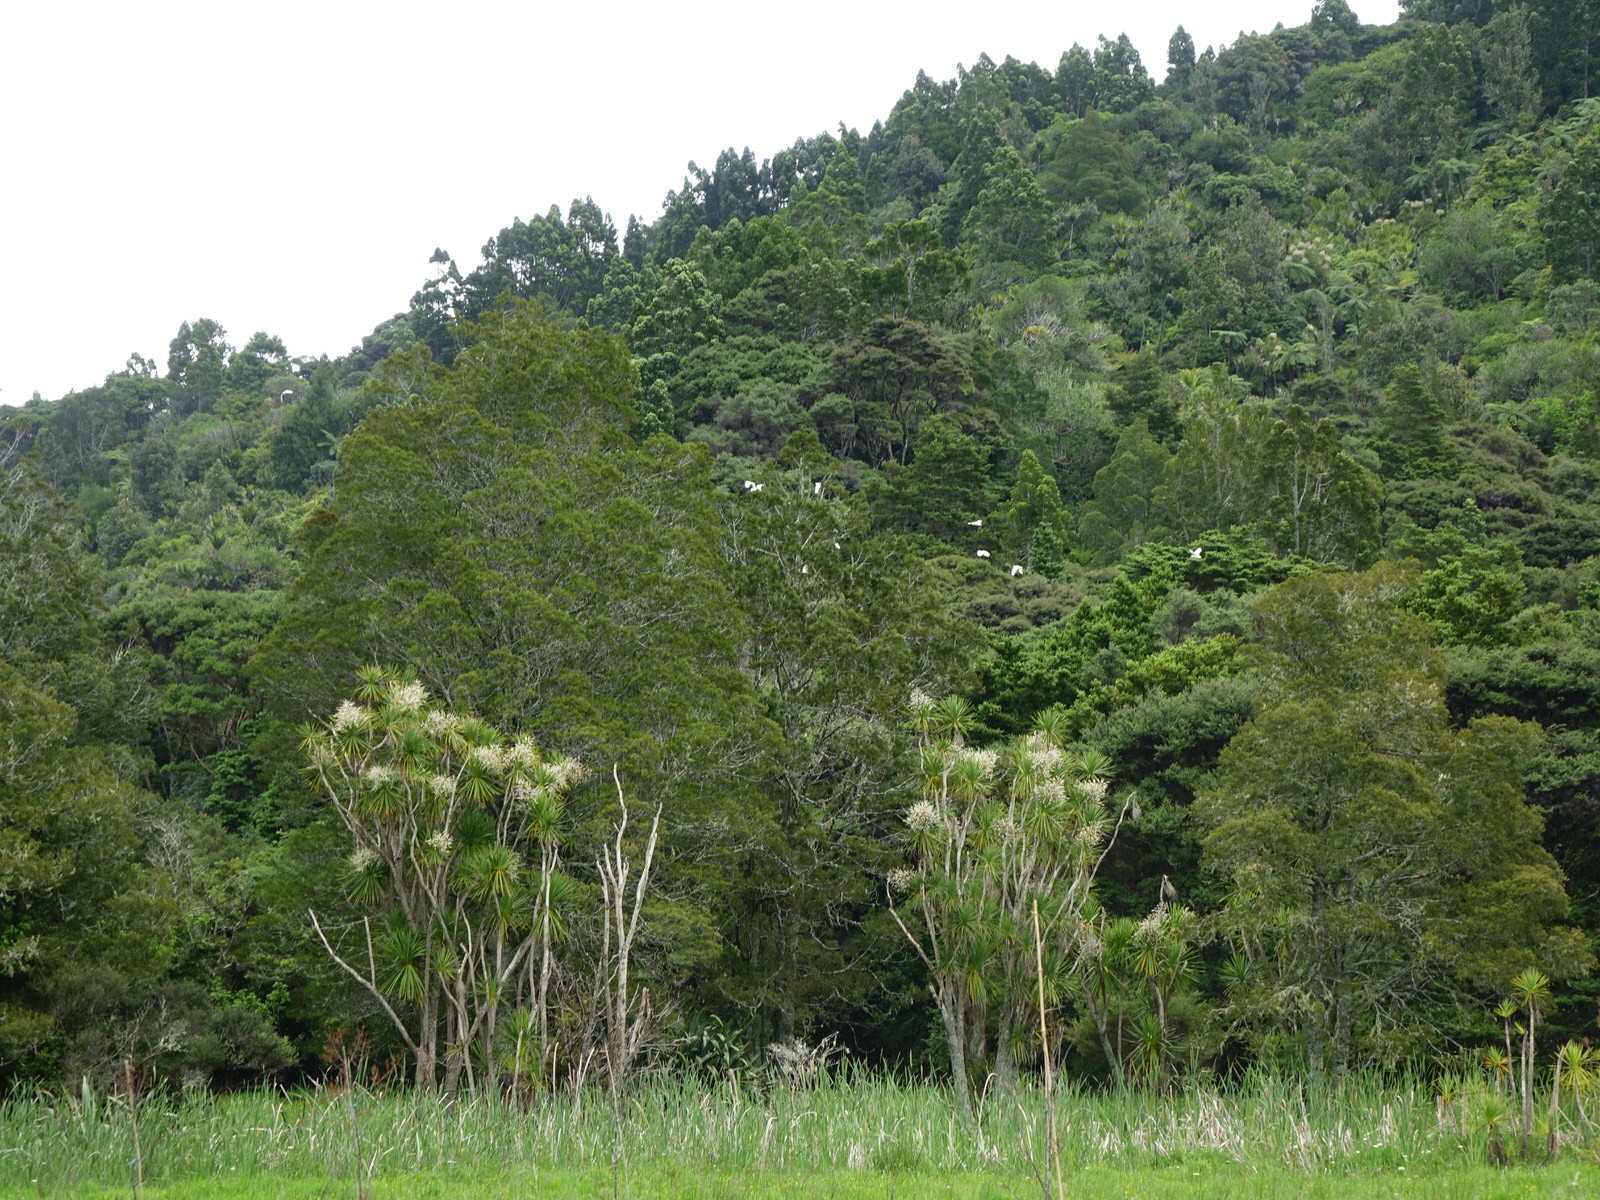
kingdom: Animalia
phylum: Chordata
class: Aves
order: Psittaciformes
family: Psittacidae
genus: Cacatua
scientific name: Cacatua galerita
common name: Sulphur-crested cockatoo
